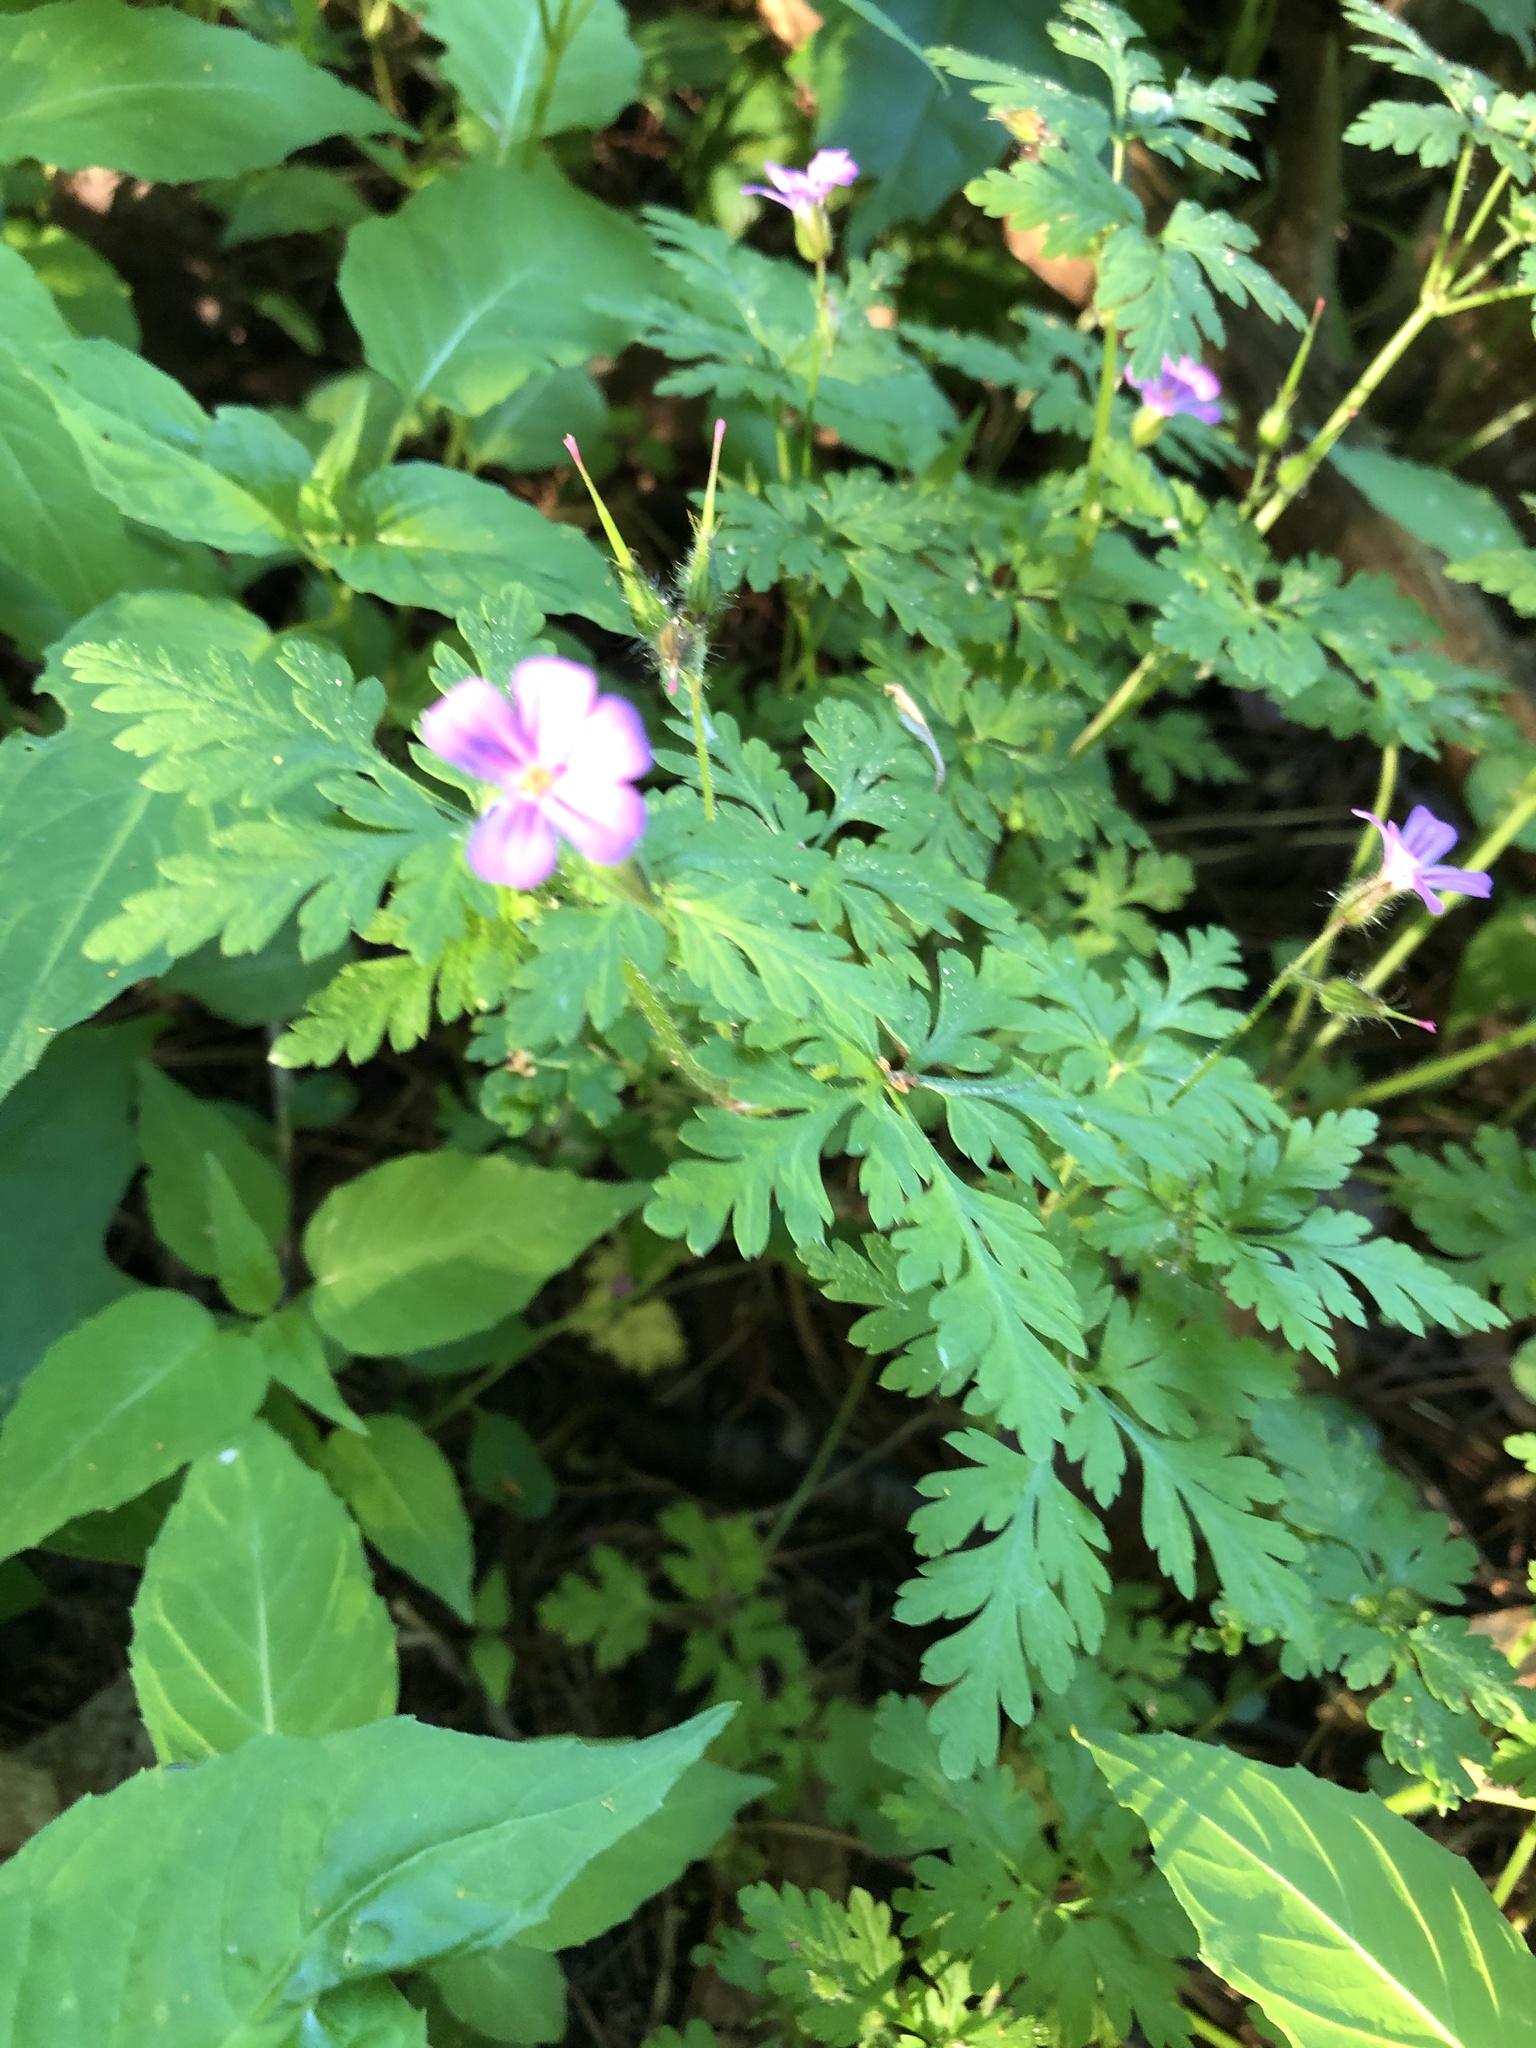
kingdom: Plantae
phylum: Tracheophyta
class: Magnoliopsida
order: Geraniales
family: Geraniaceae
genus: Geranium
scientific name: Geranium robertianum
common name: Herb-robert
